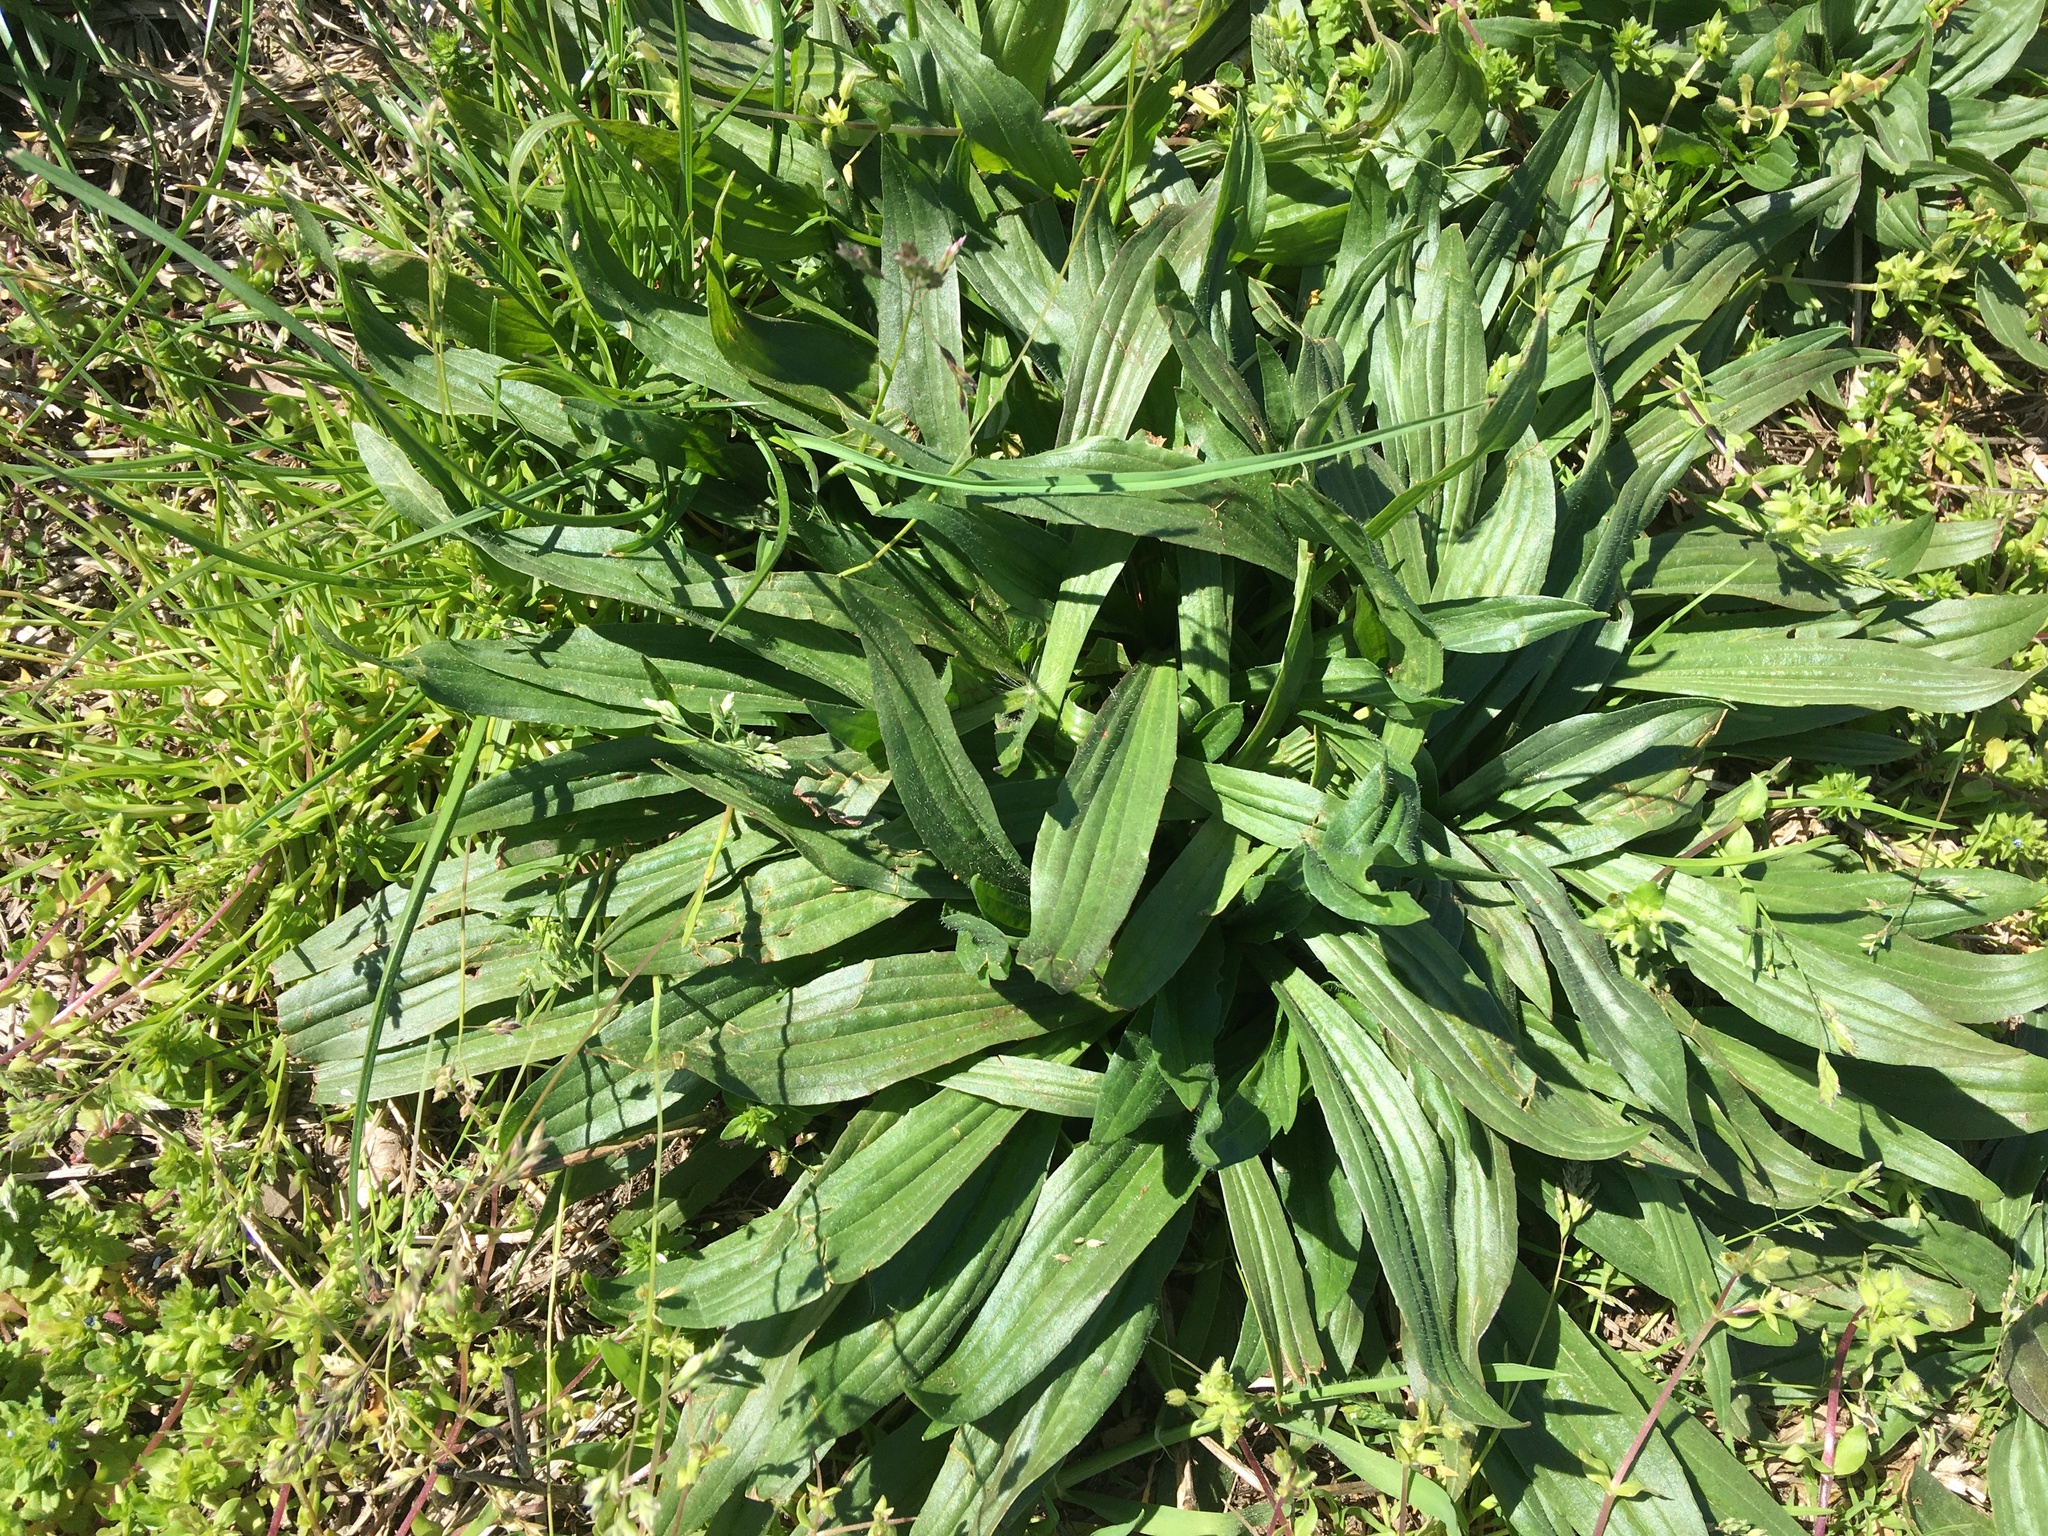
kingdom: Plantae
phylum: Tracheophyta
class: Magnoliopsida
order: Lamiales
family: Plantaginaceae
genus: Plantago
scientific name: Plantago lanceolata
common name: Ribwort plantain
